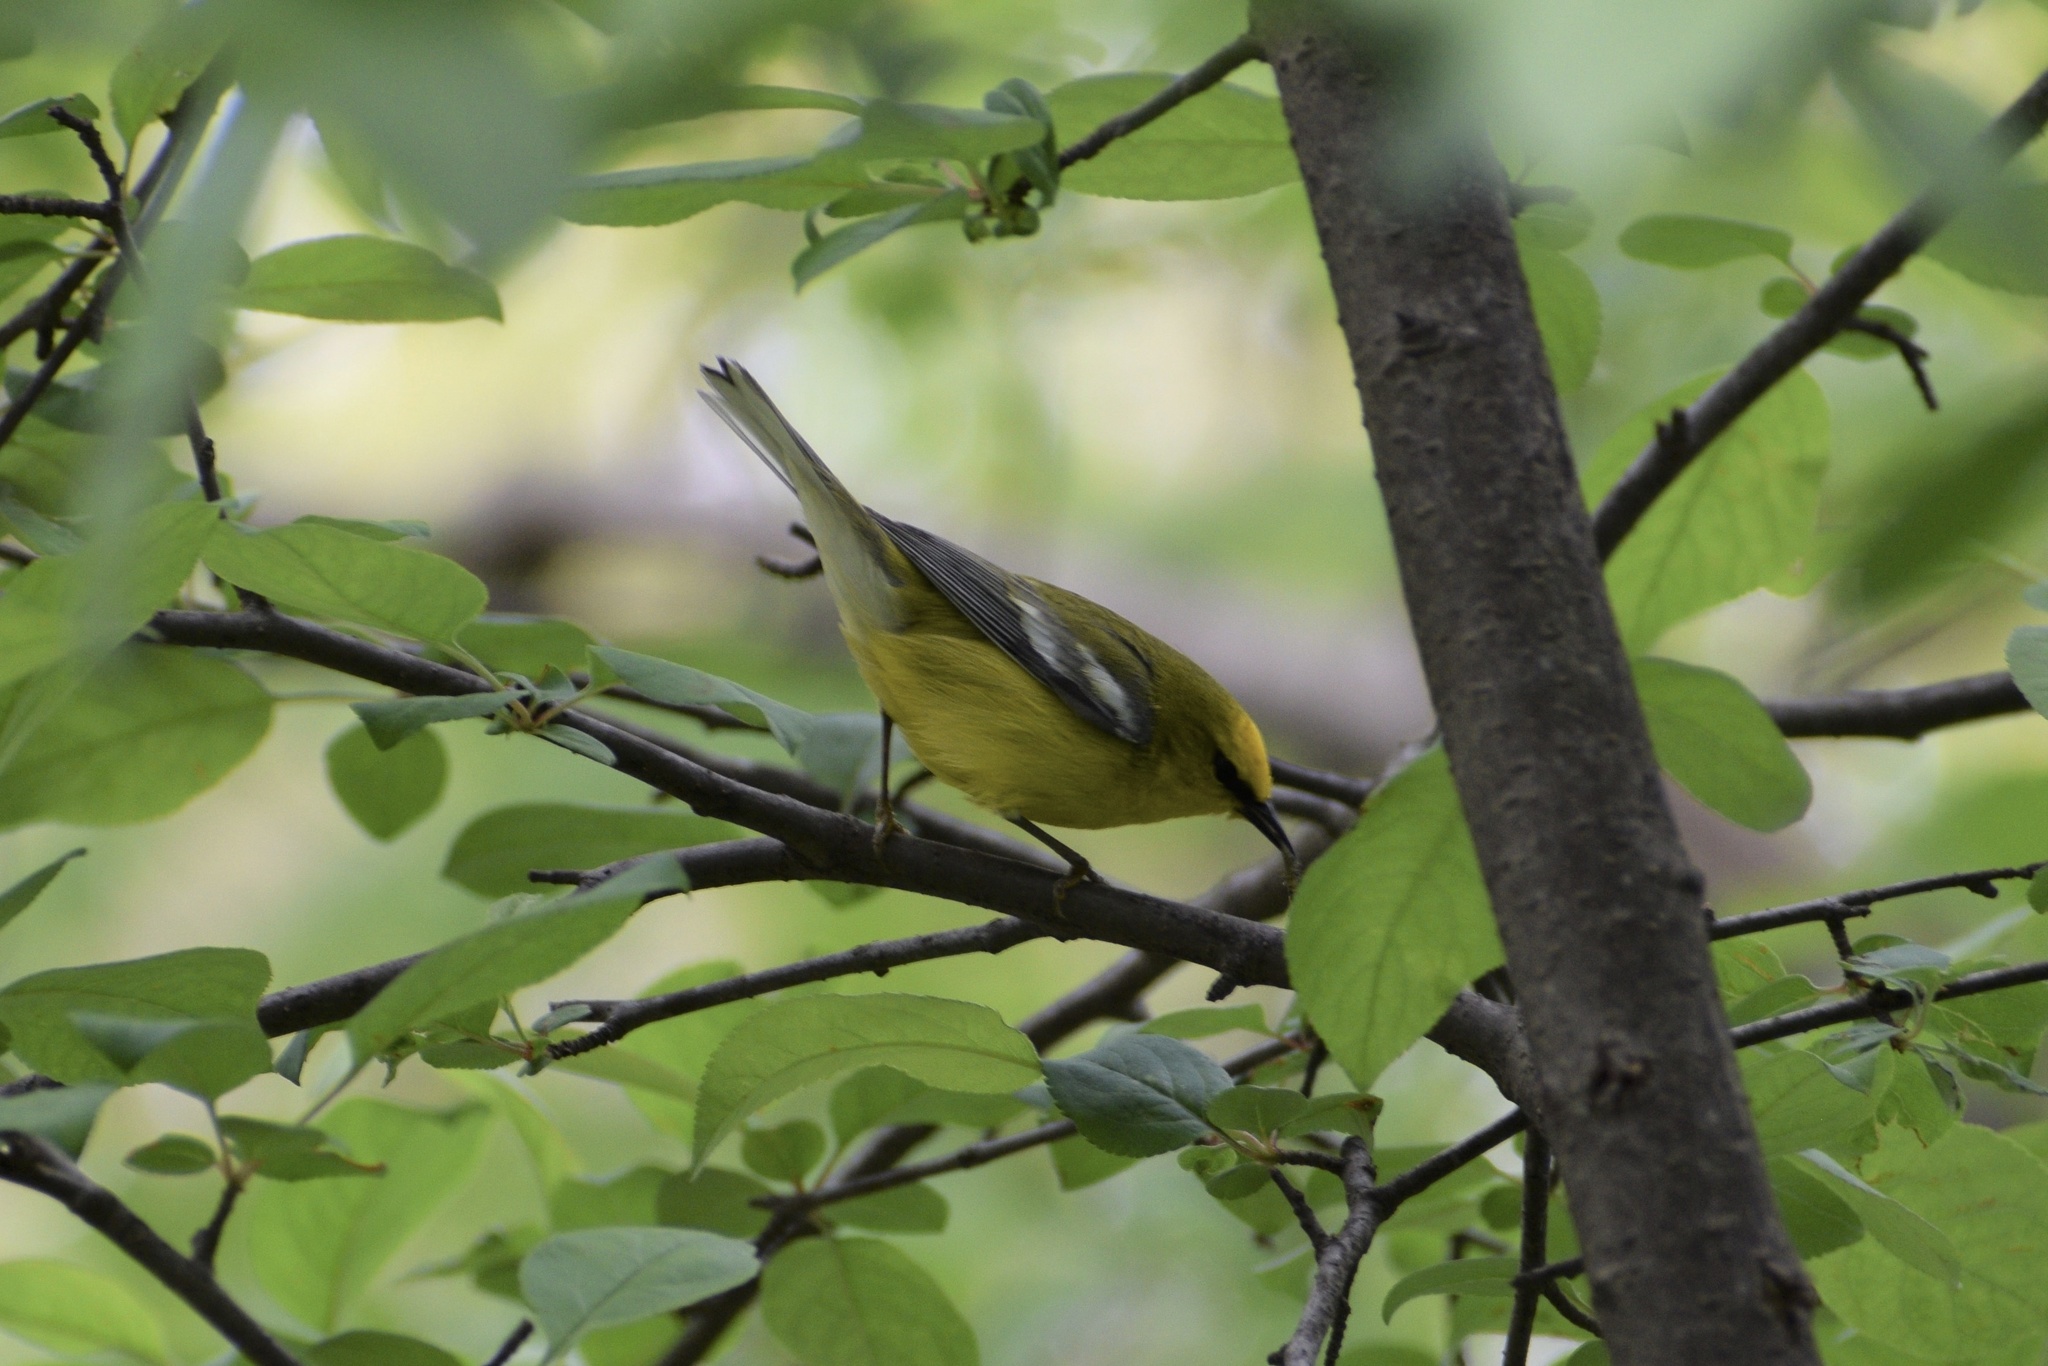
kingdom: Animalia
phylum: Chordata
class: Aves
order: Passeriformes
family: Parulidae
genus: Vermivora
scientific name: Vermivora cyanoptera
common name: Blue-winged warbler
